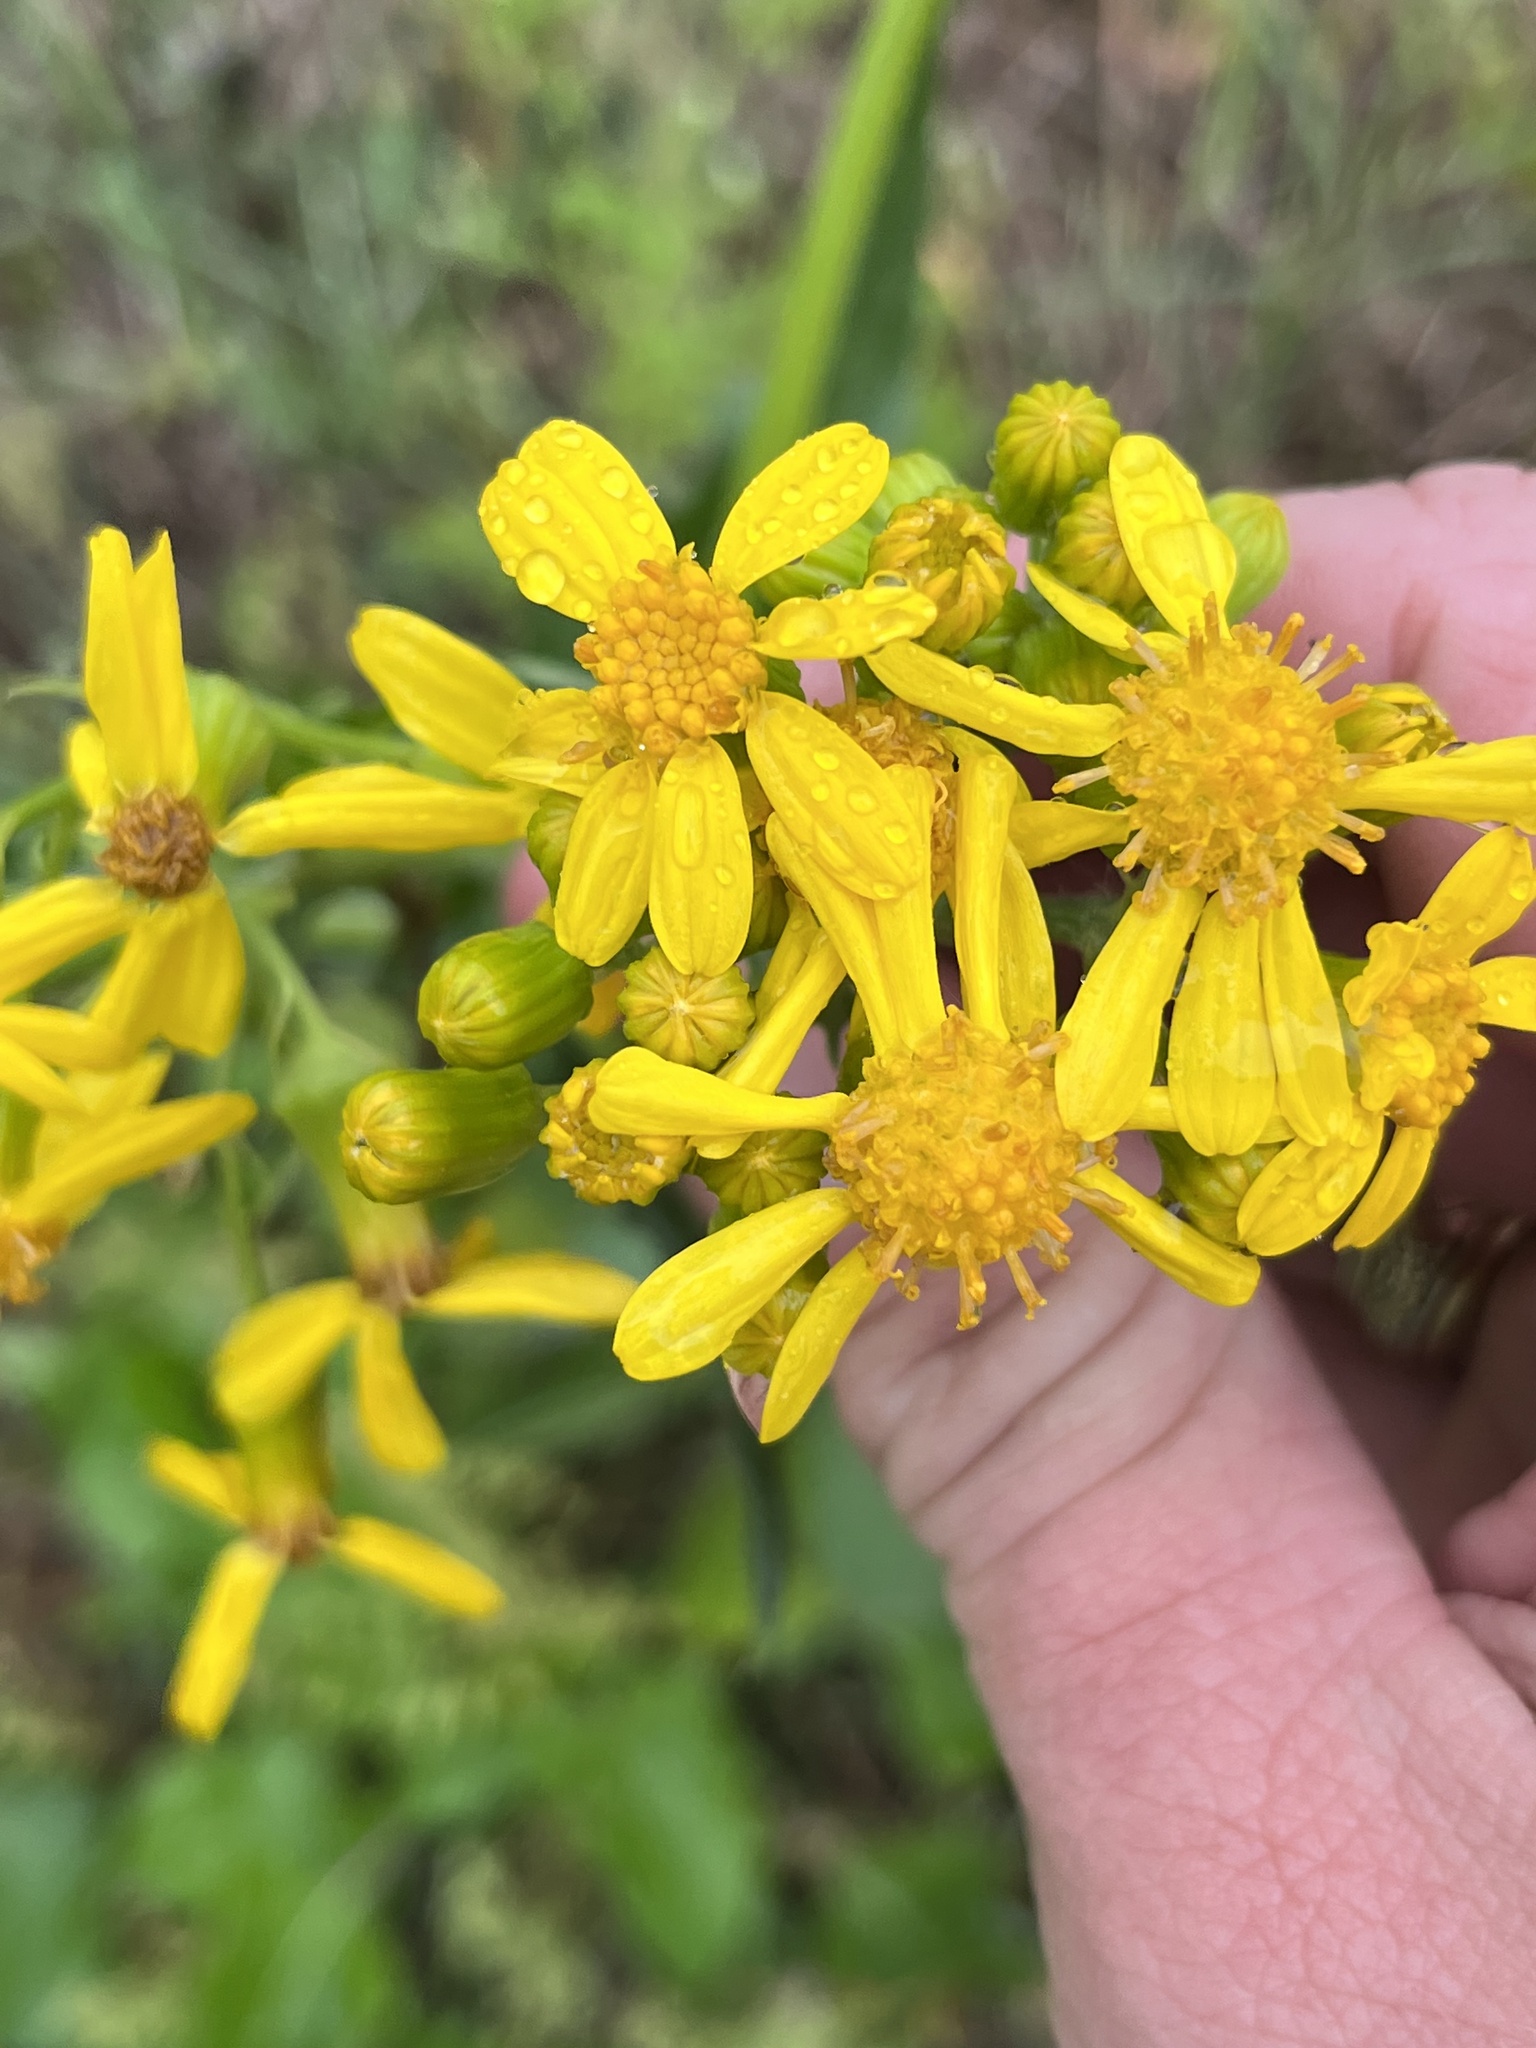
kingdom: Plantae
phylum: Tracheophyta
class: Magnoliopsida
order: Asterales
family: Asteraceae
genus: Senecio
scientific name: Senecio ampullaceus
